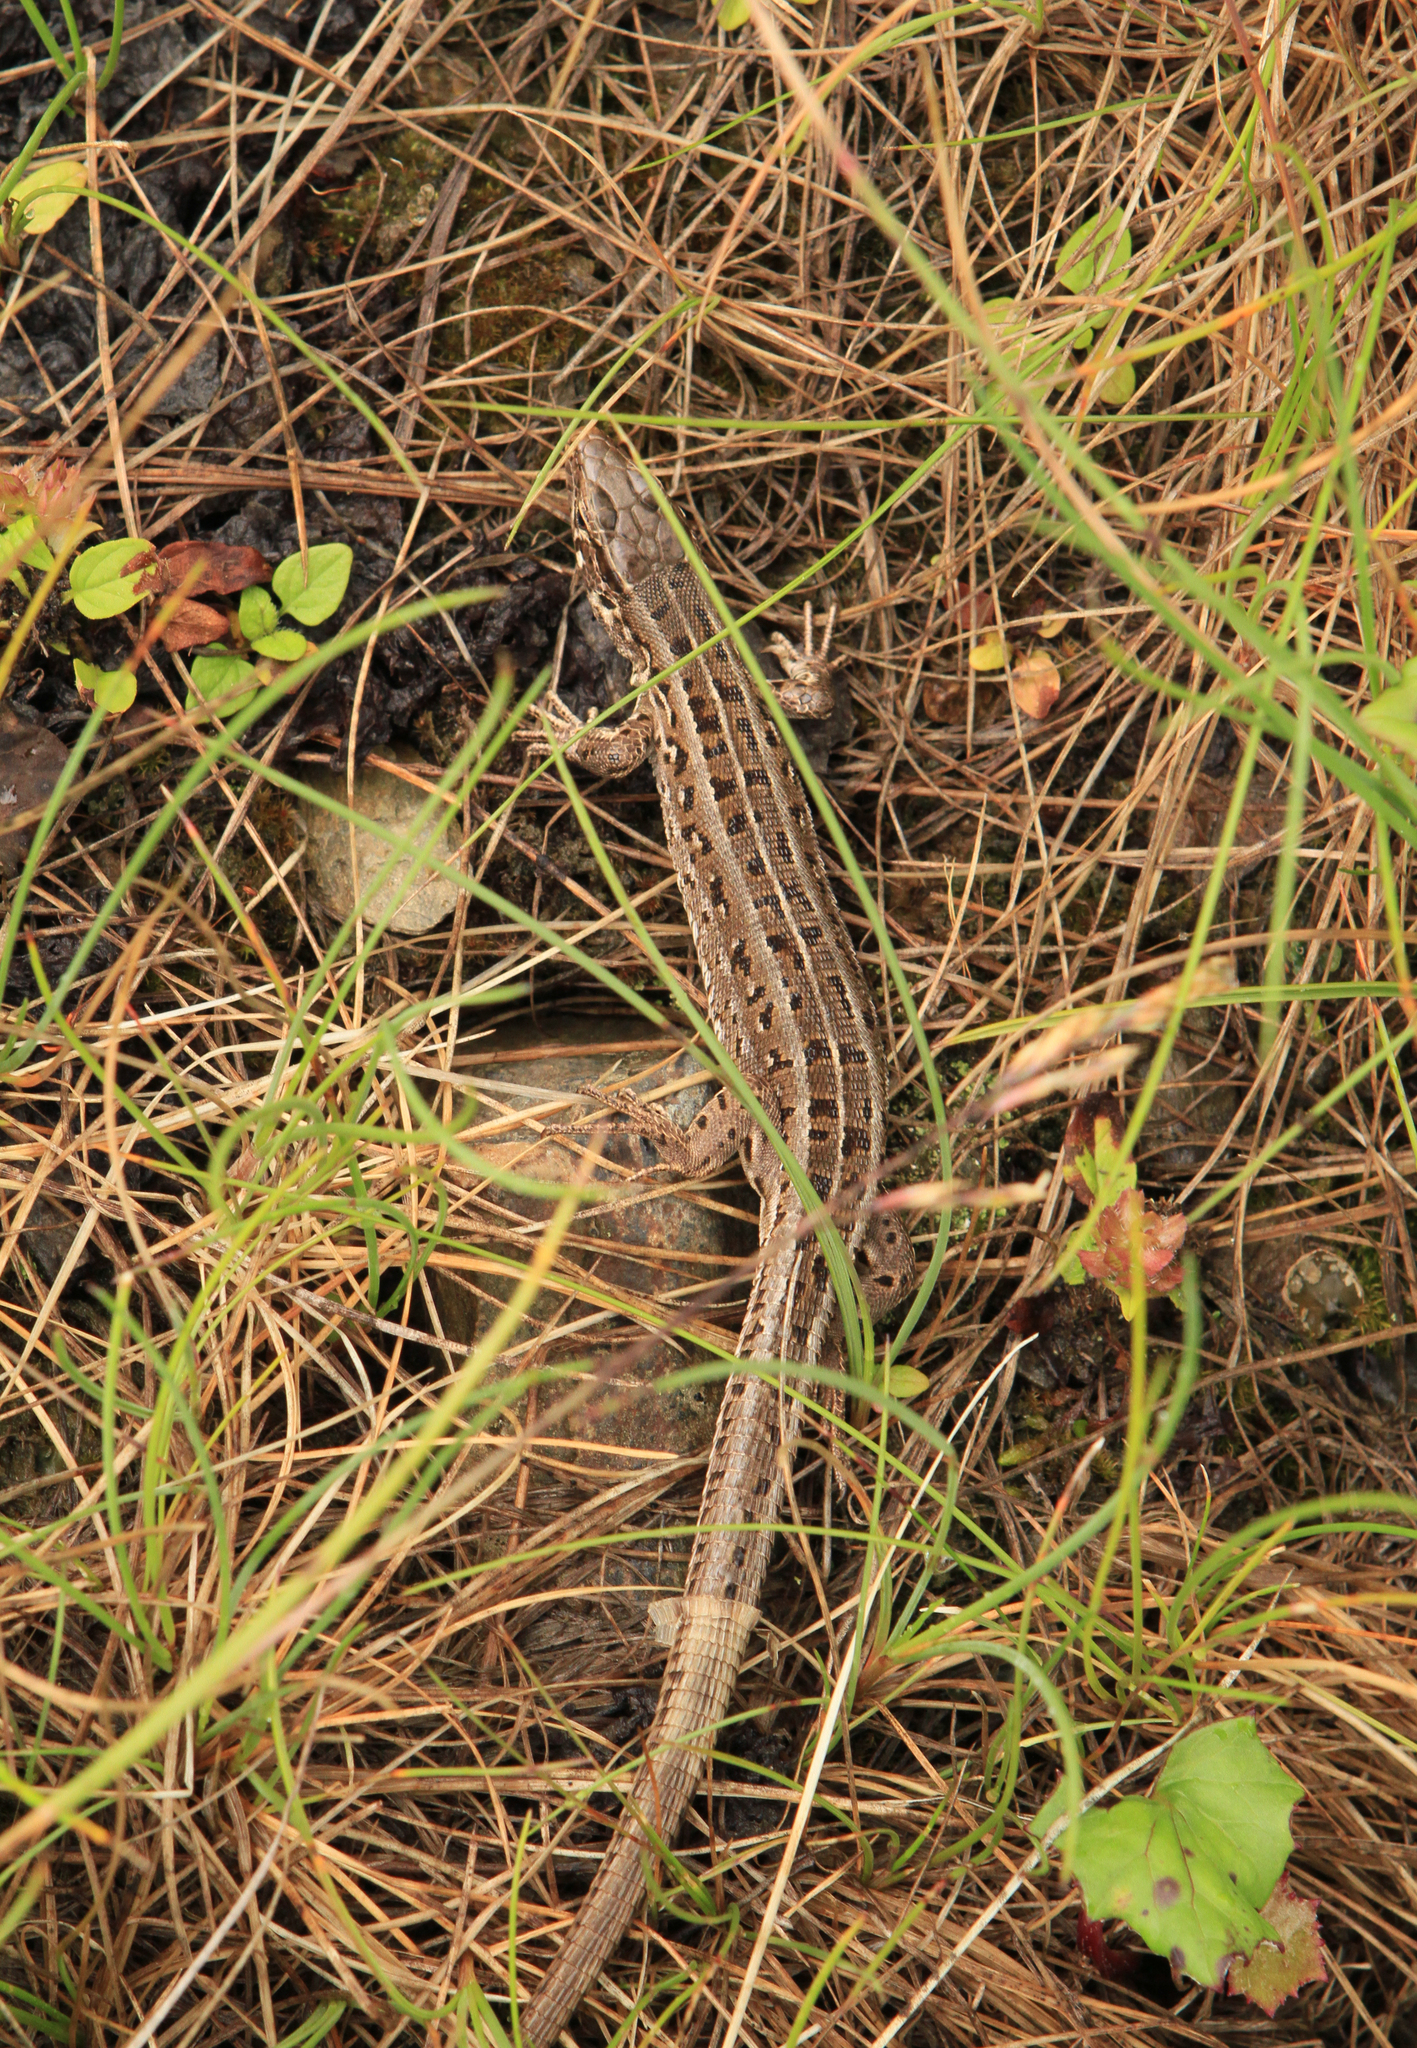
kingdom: Animalia
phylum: Chordata
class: Squamata
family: Lacertidae
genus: Lacerta
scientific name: Lacerta agilis
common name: Sand lizard
